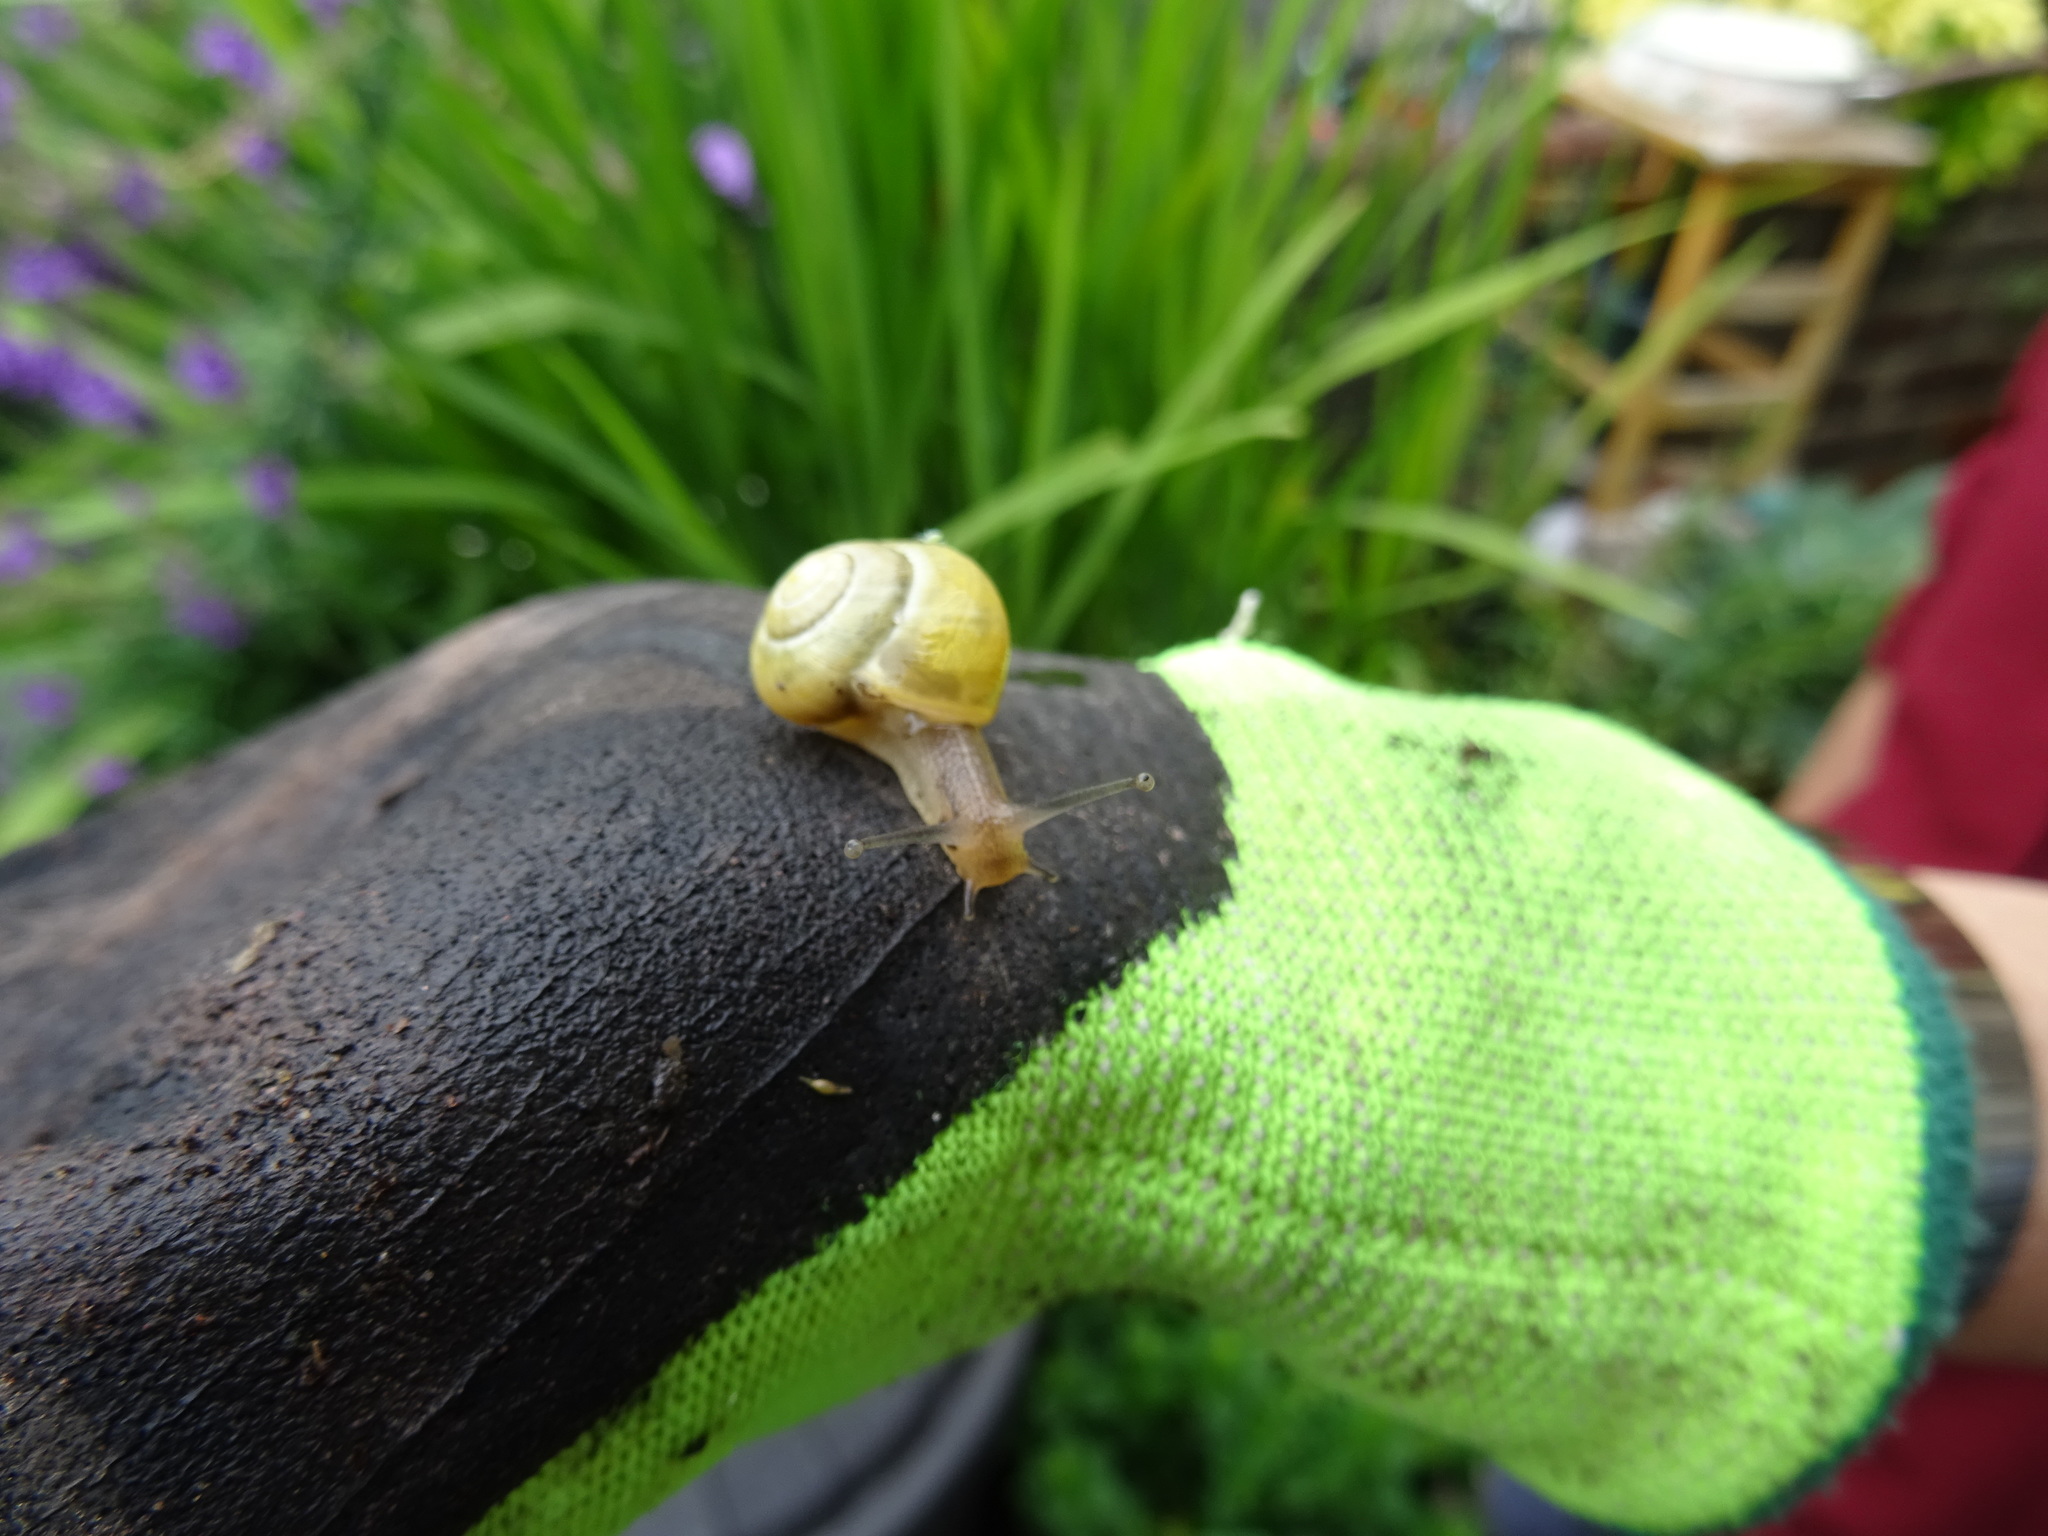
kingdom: Animalia
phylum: Mollusca
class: Gastropoda
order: Stylommatophora
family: Helicidae
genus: Cepaea
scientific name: Cepaea
